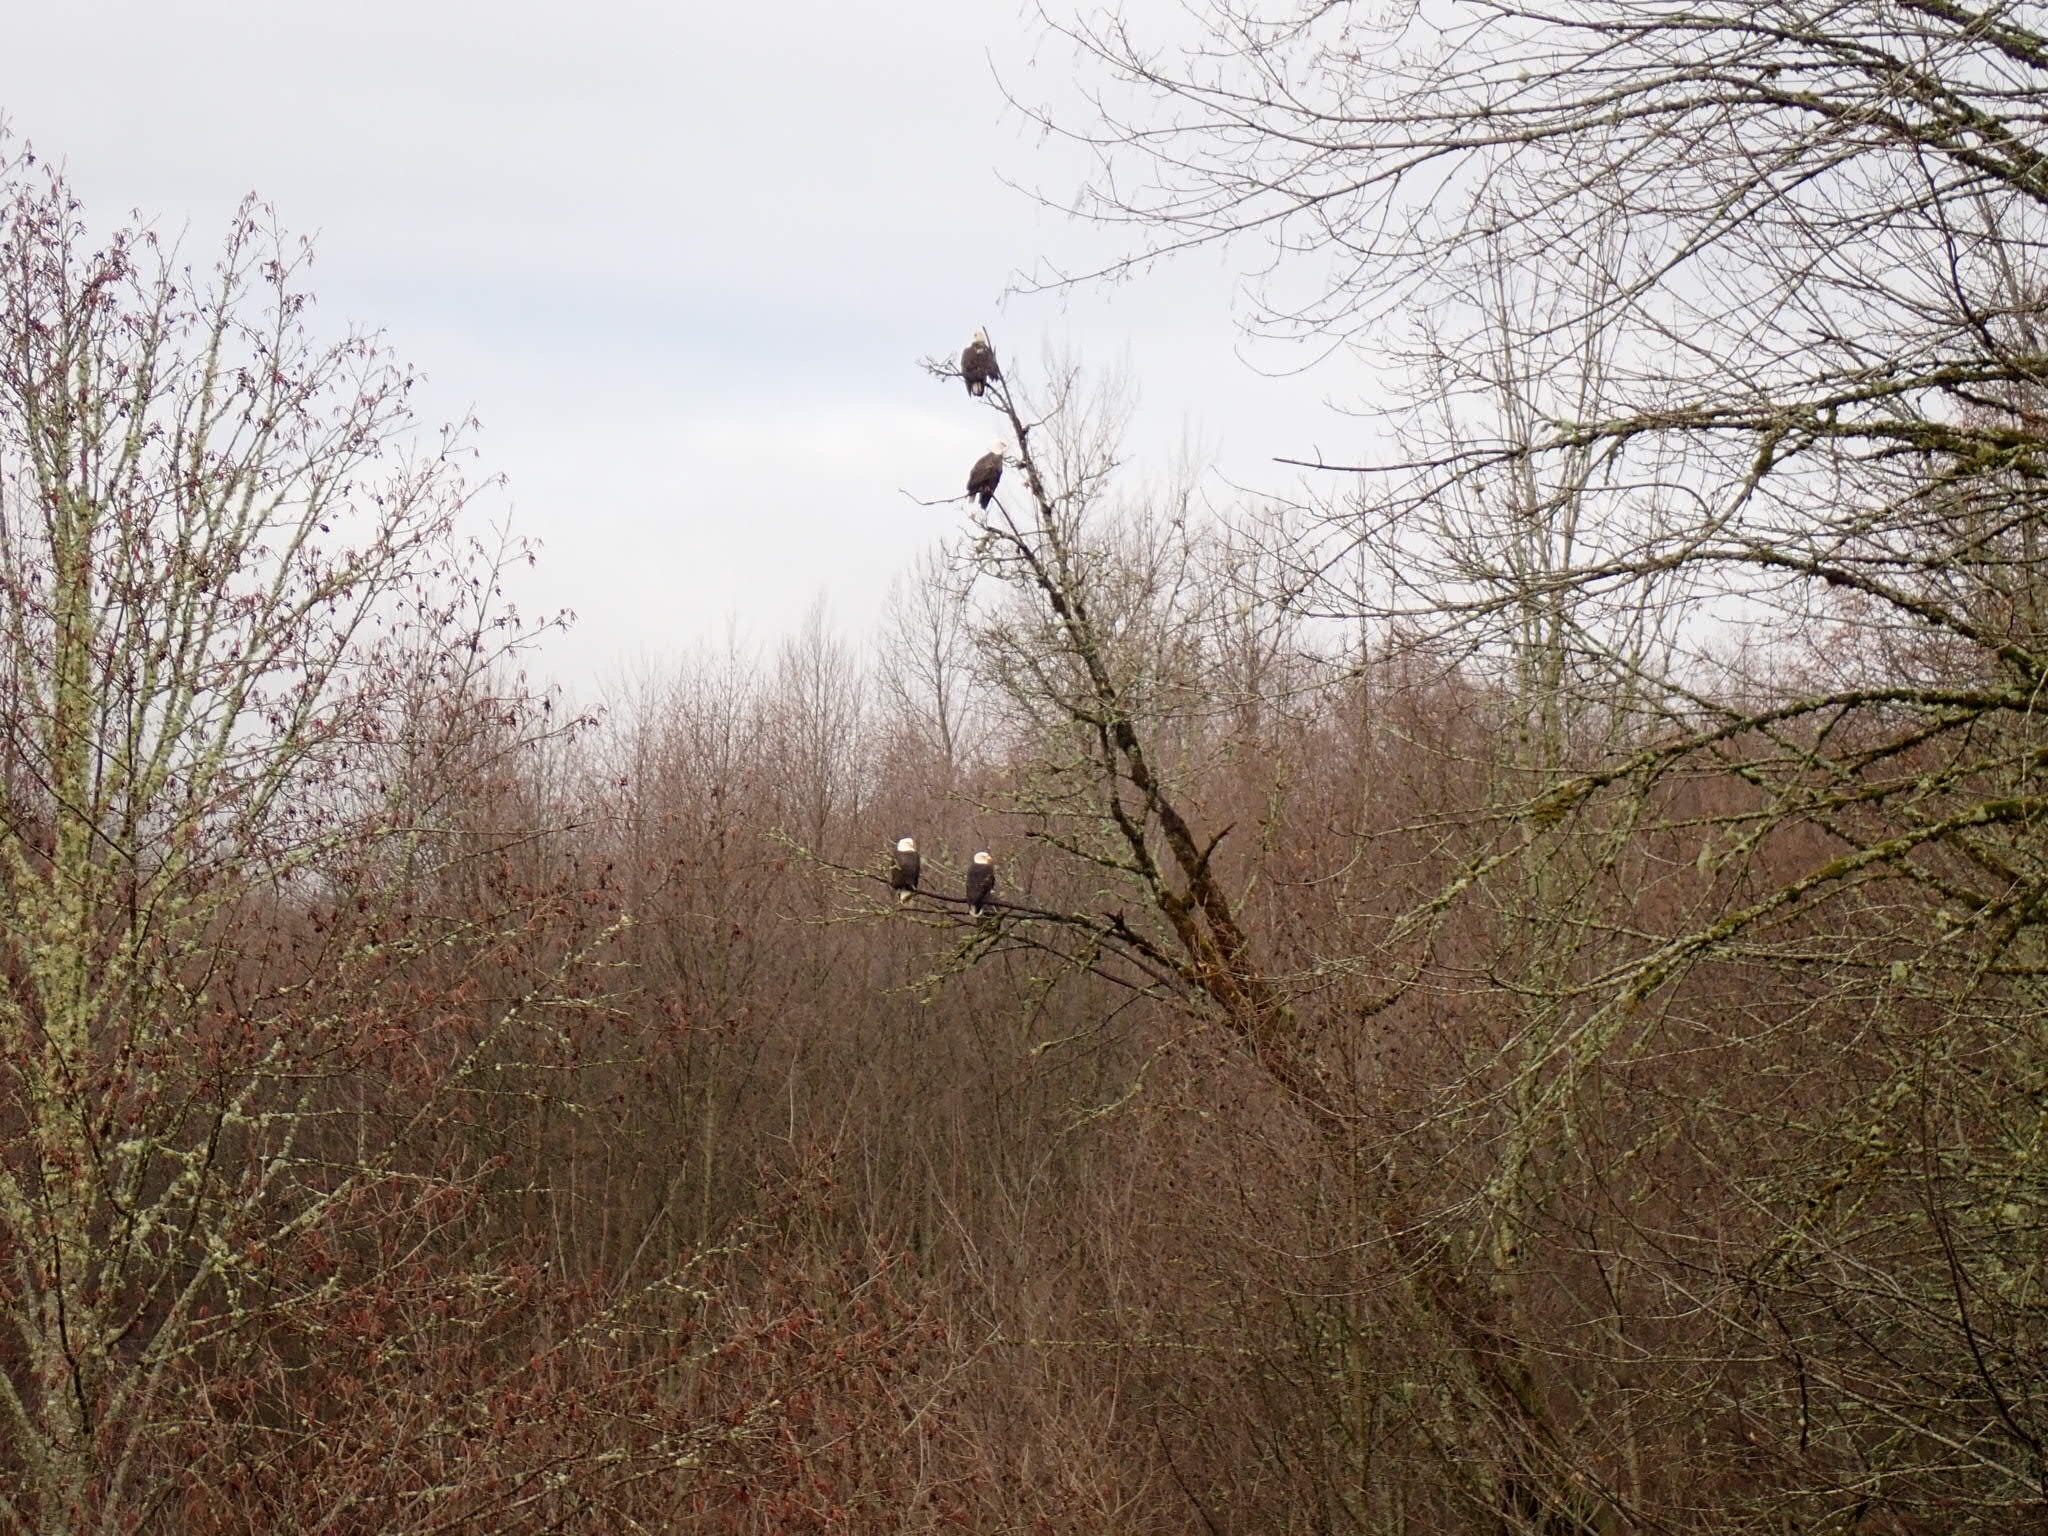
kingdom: Animalia
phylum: Chordata
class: Aves
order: Accipitriformes
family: Accipitridae
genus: Haliaeetus
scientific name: Haliaeetus leucocephalus
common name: Bald eagle
